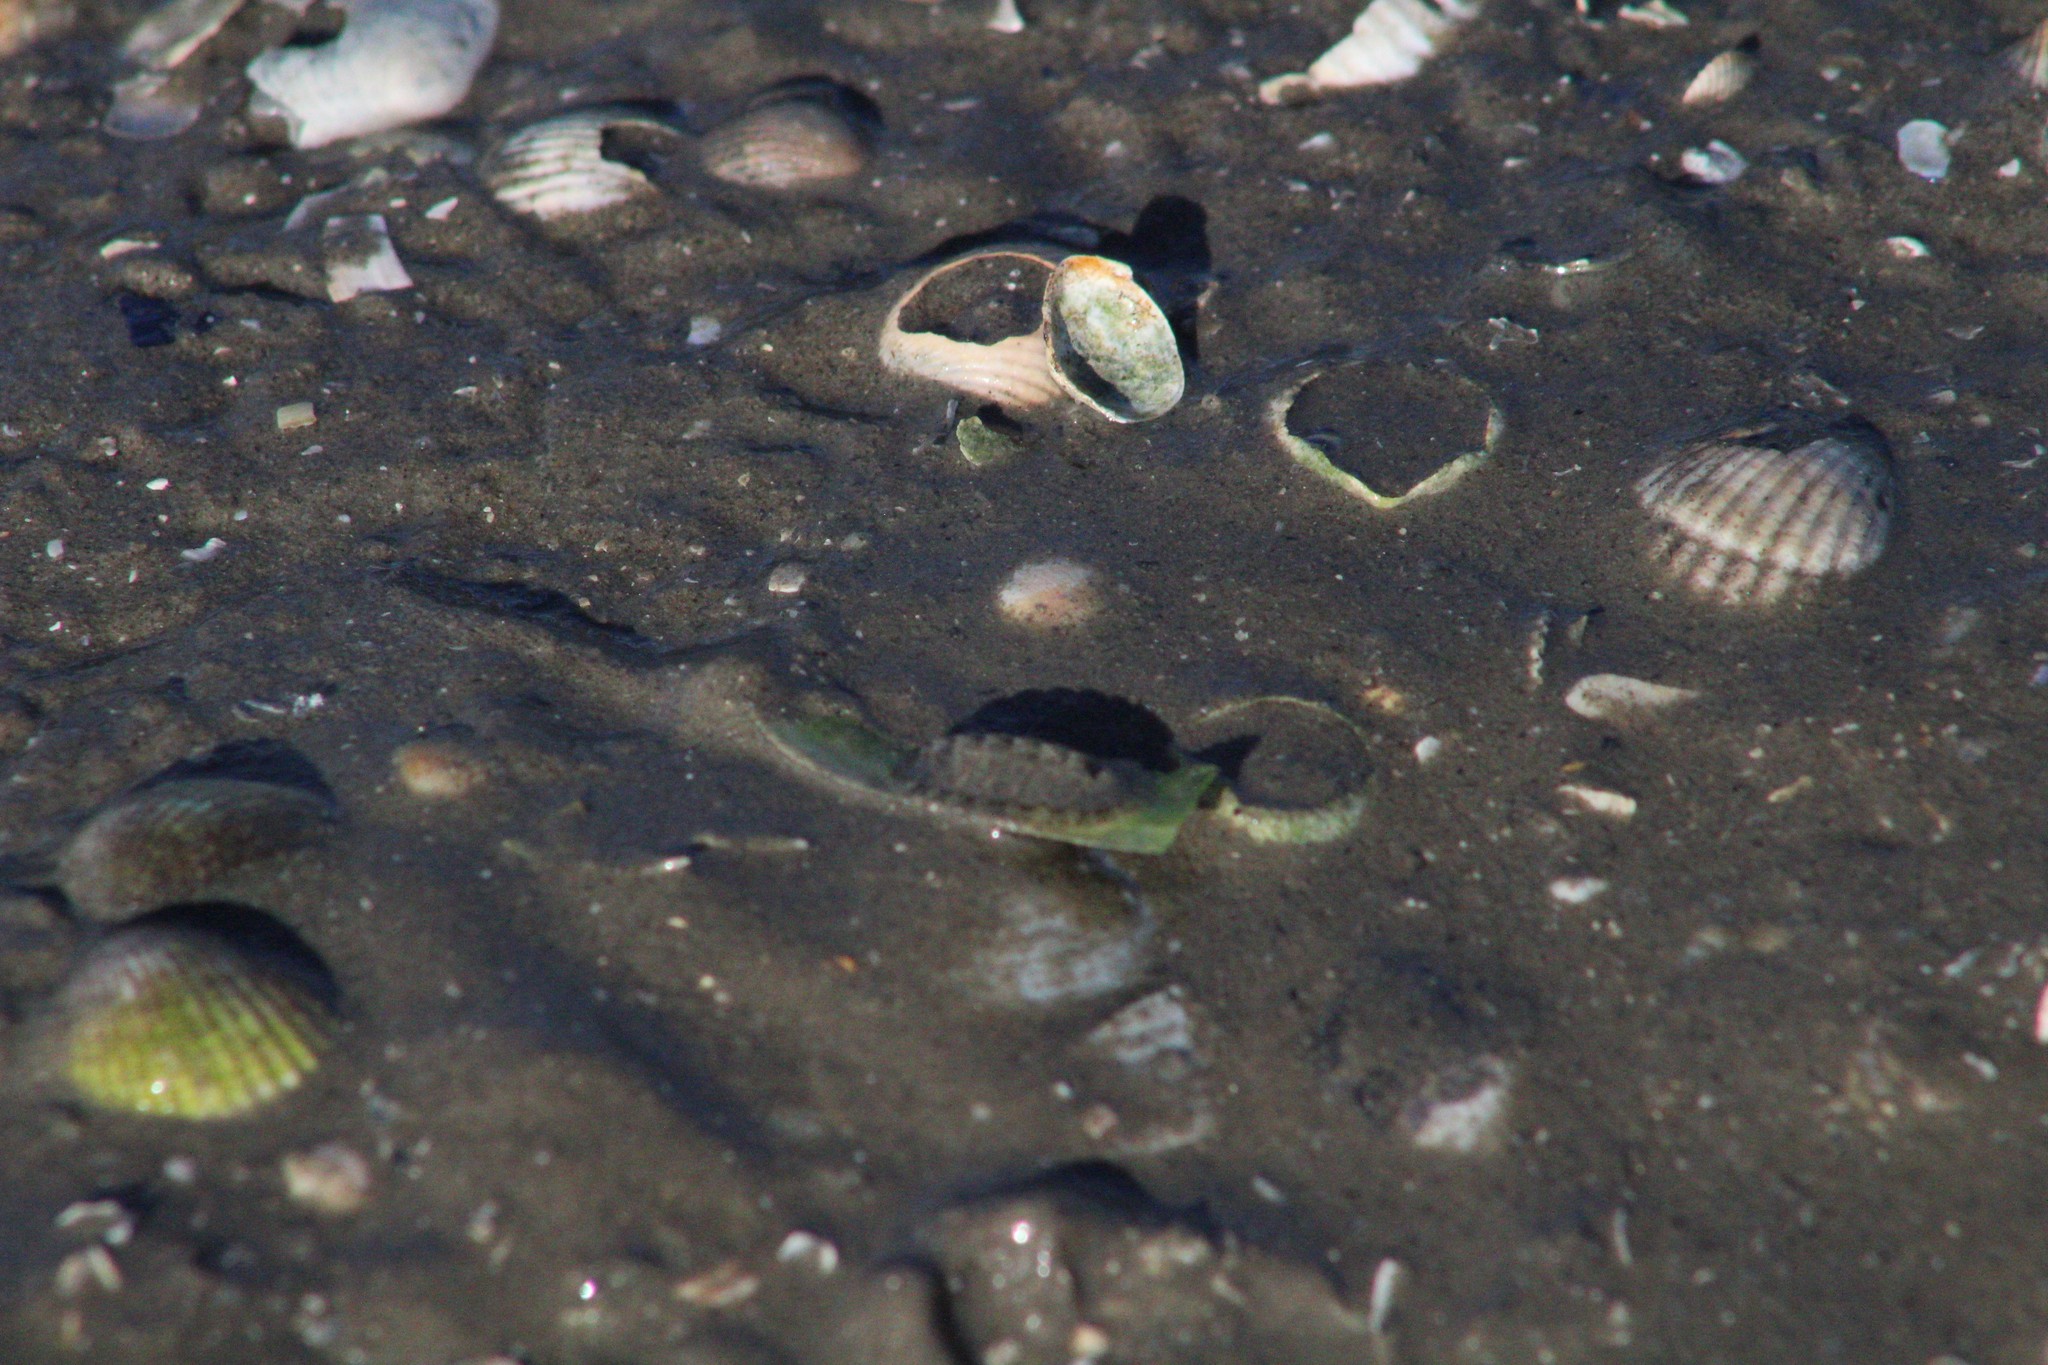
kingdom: Animalia
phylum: Mollusca
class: Polyplacophora
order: Chitonida
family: Tonicellidae
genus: Lepidochitona
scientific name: Lepidochitona cinerea
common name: Cinereous chiton
